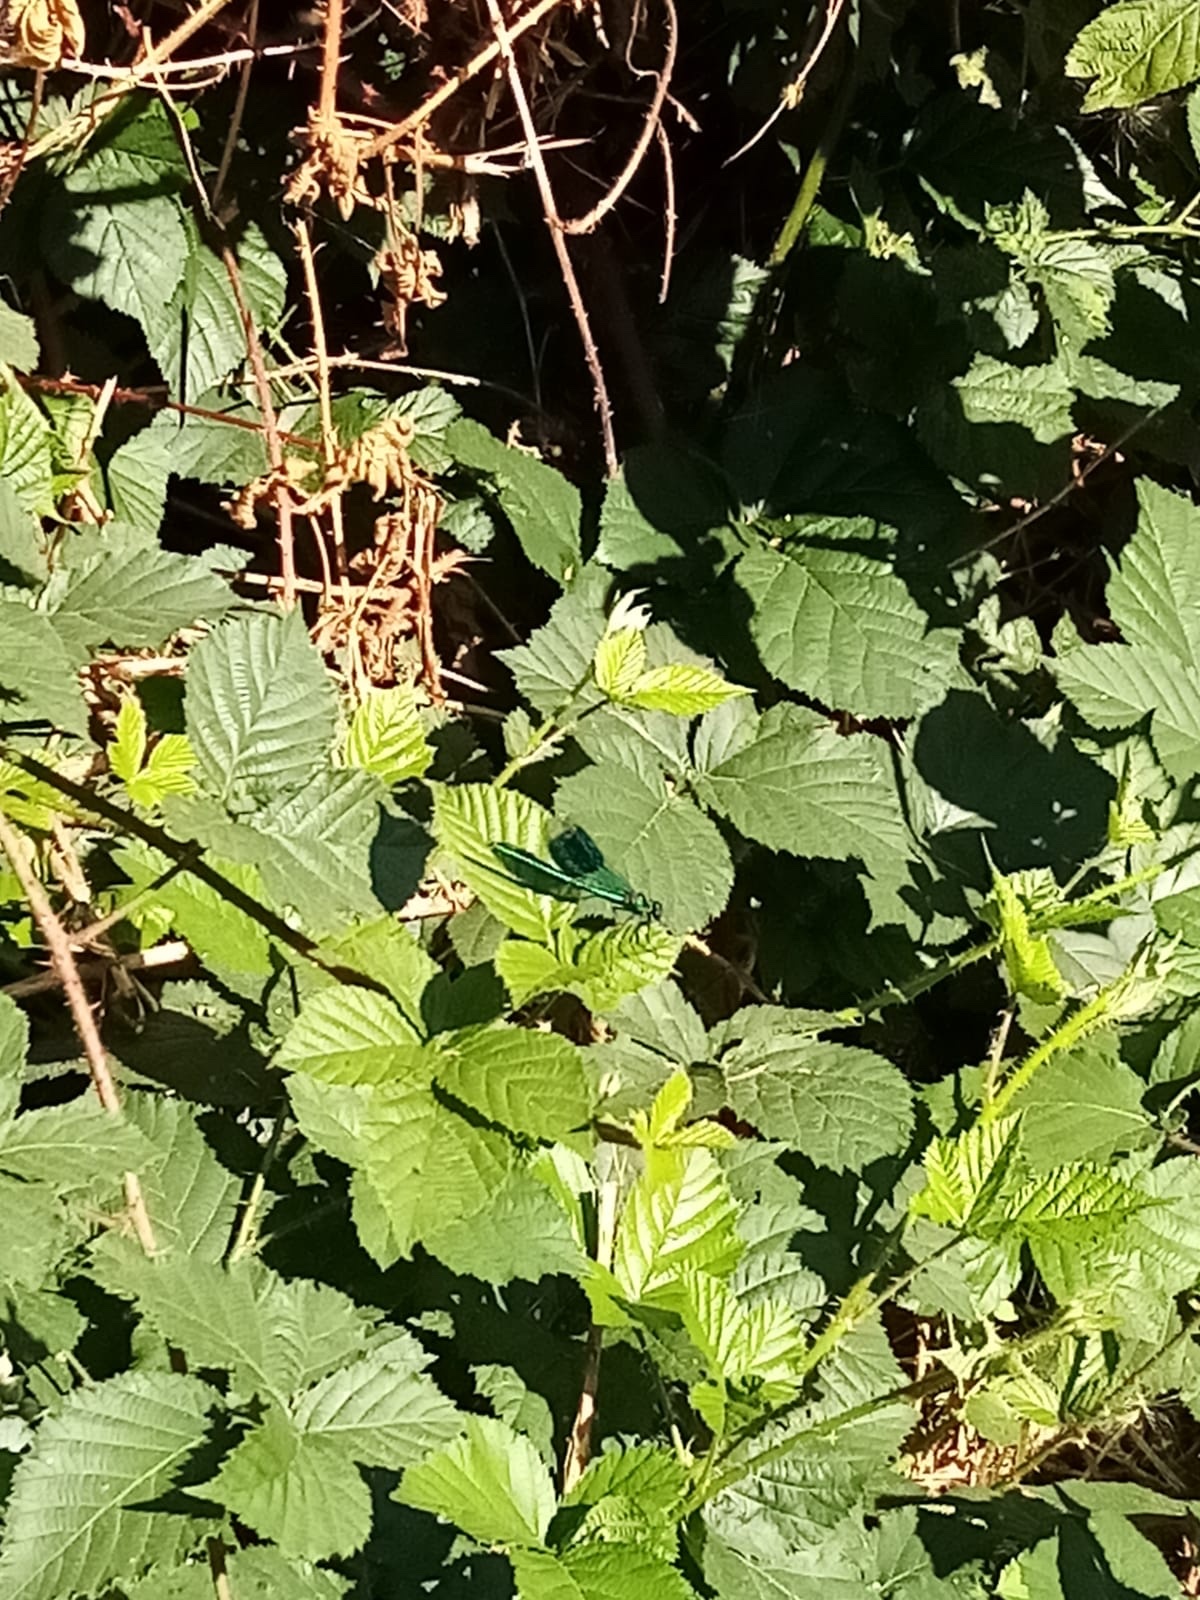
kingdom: Animalia
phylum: Arthropoda
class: Insecta
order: Odonata
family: Calopterygidae
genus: Calopteryx
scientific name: Calopteryx splendens
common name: Banded demoiselle
